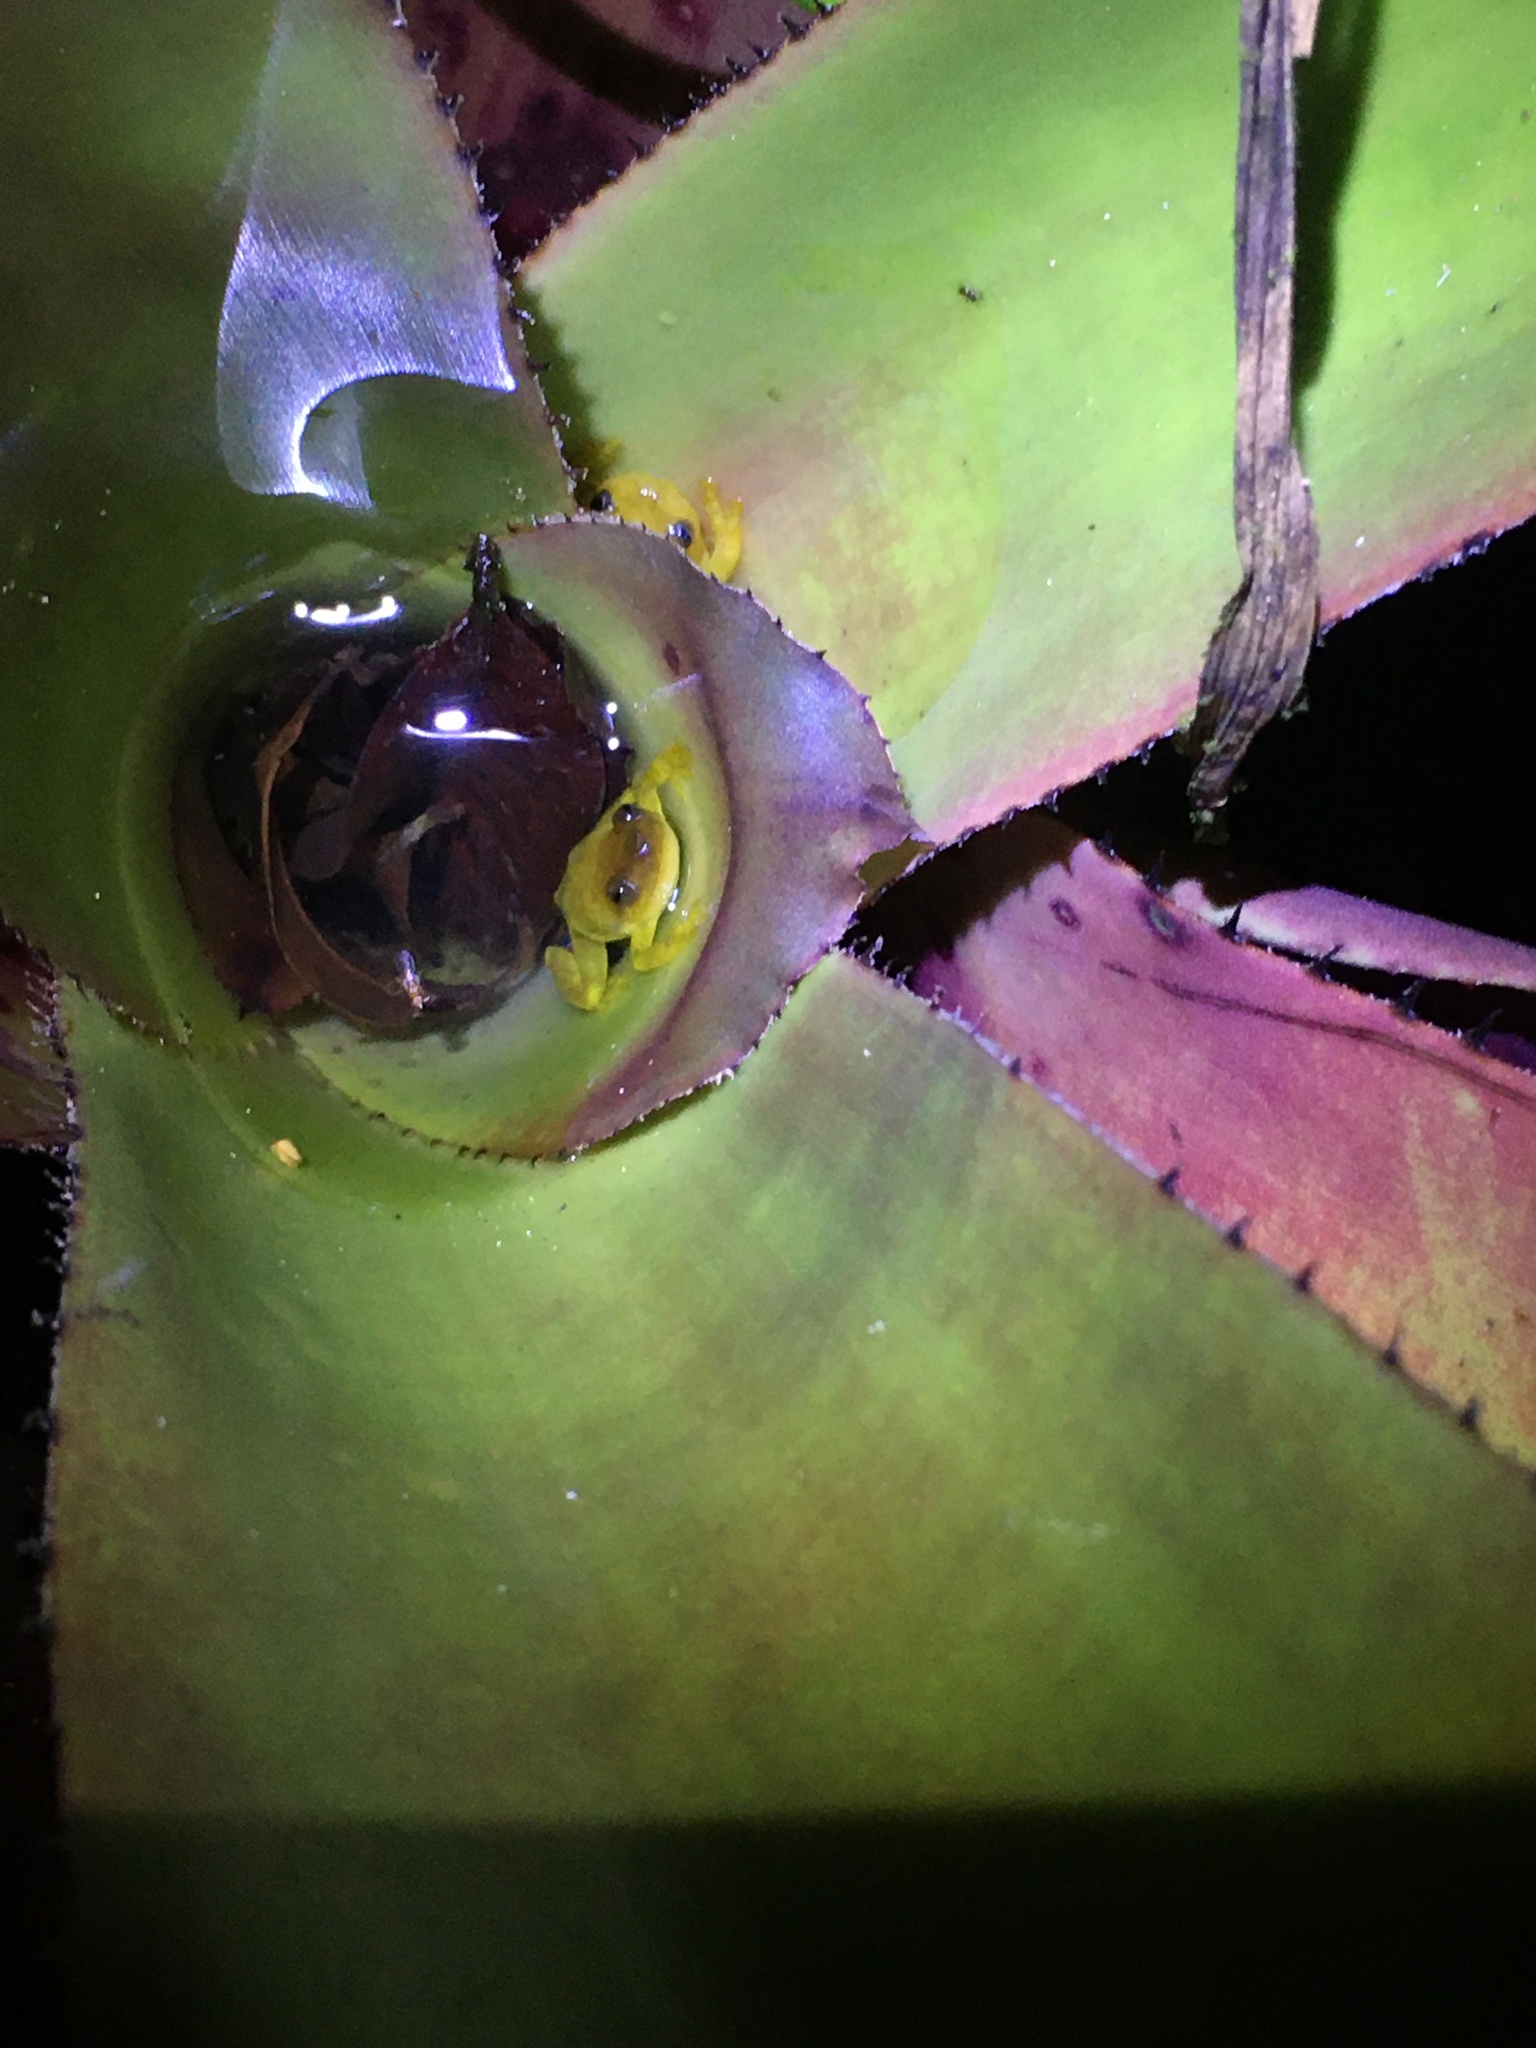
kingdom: Animalia
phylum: Chordata
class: Amphibia
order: Anura
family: Hylidae
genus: Phyllodytes
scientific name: Phyllodytes edelmoi
